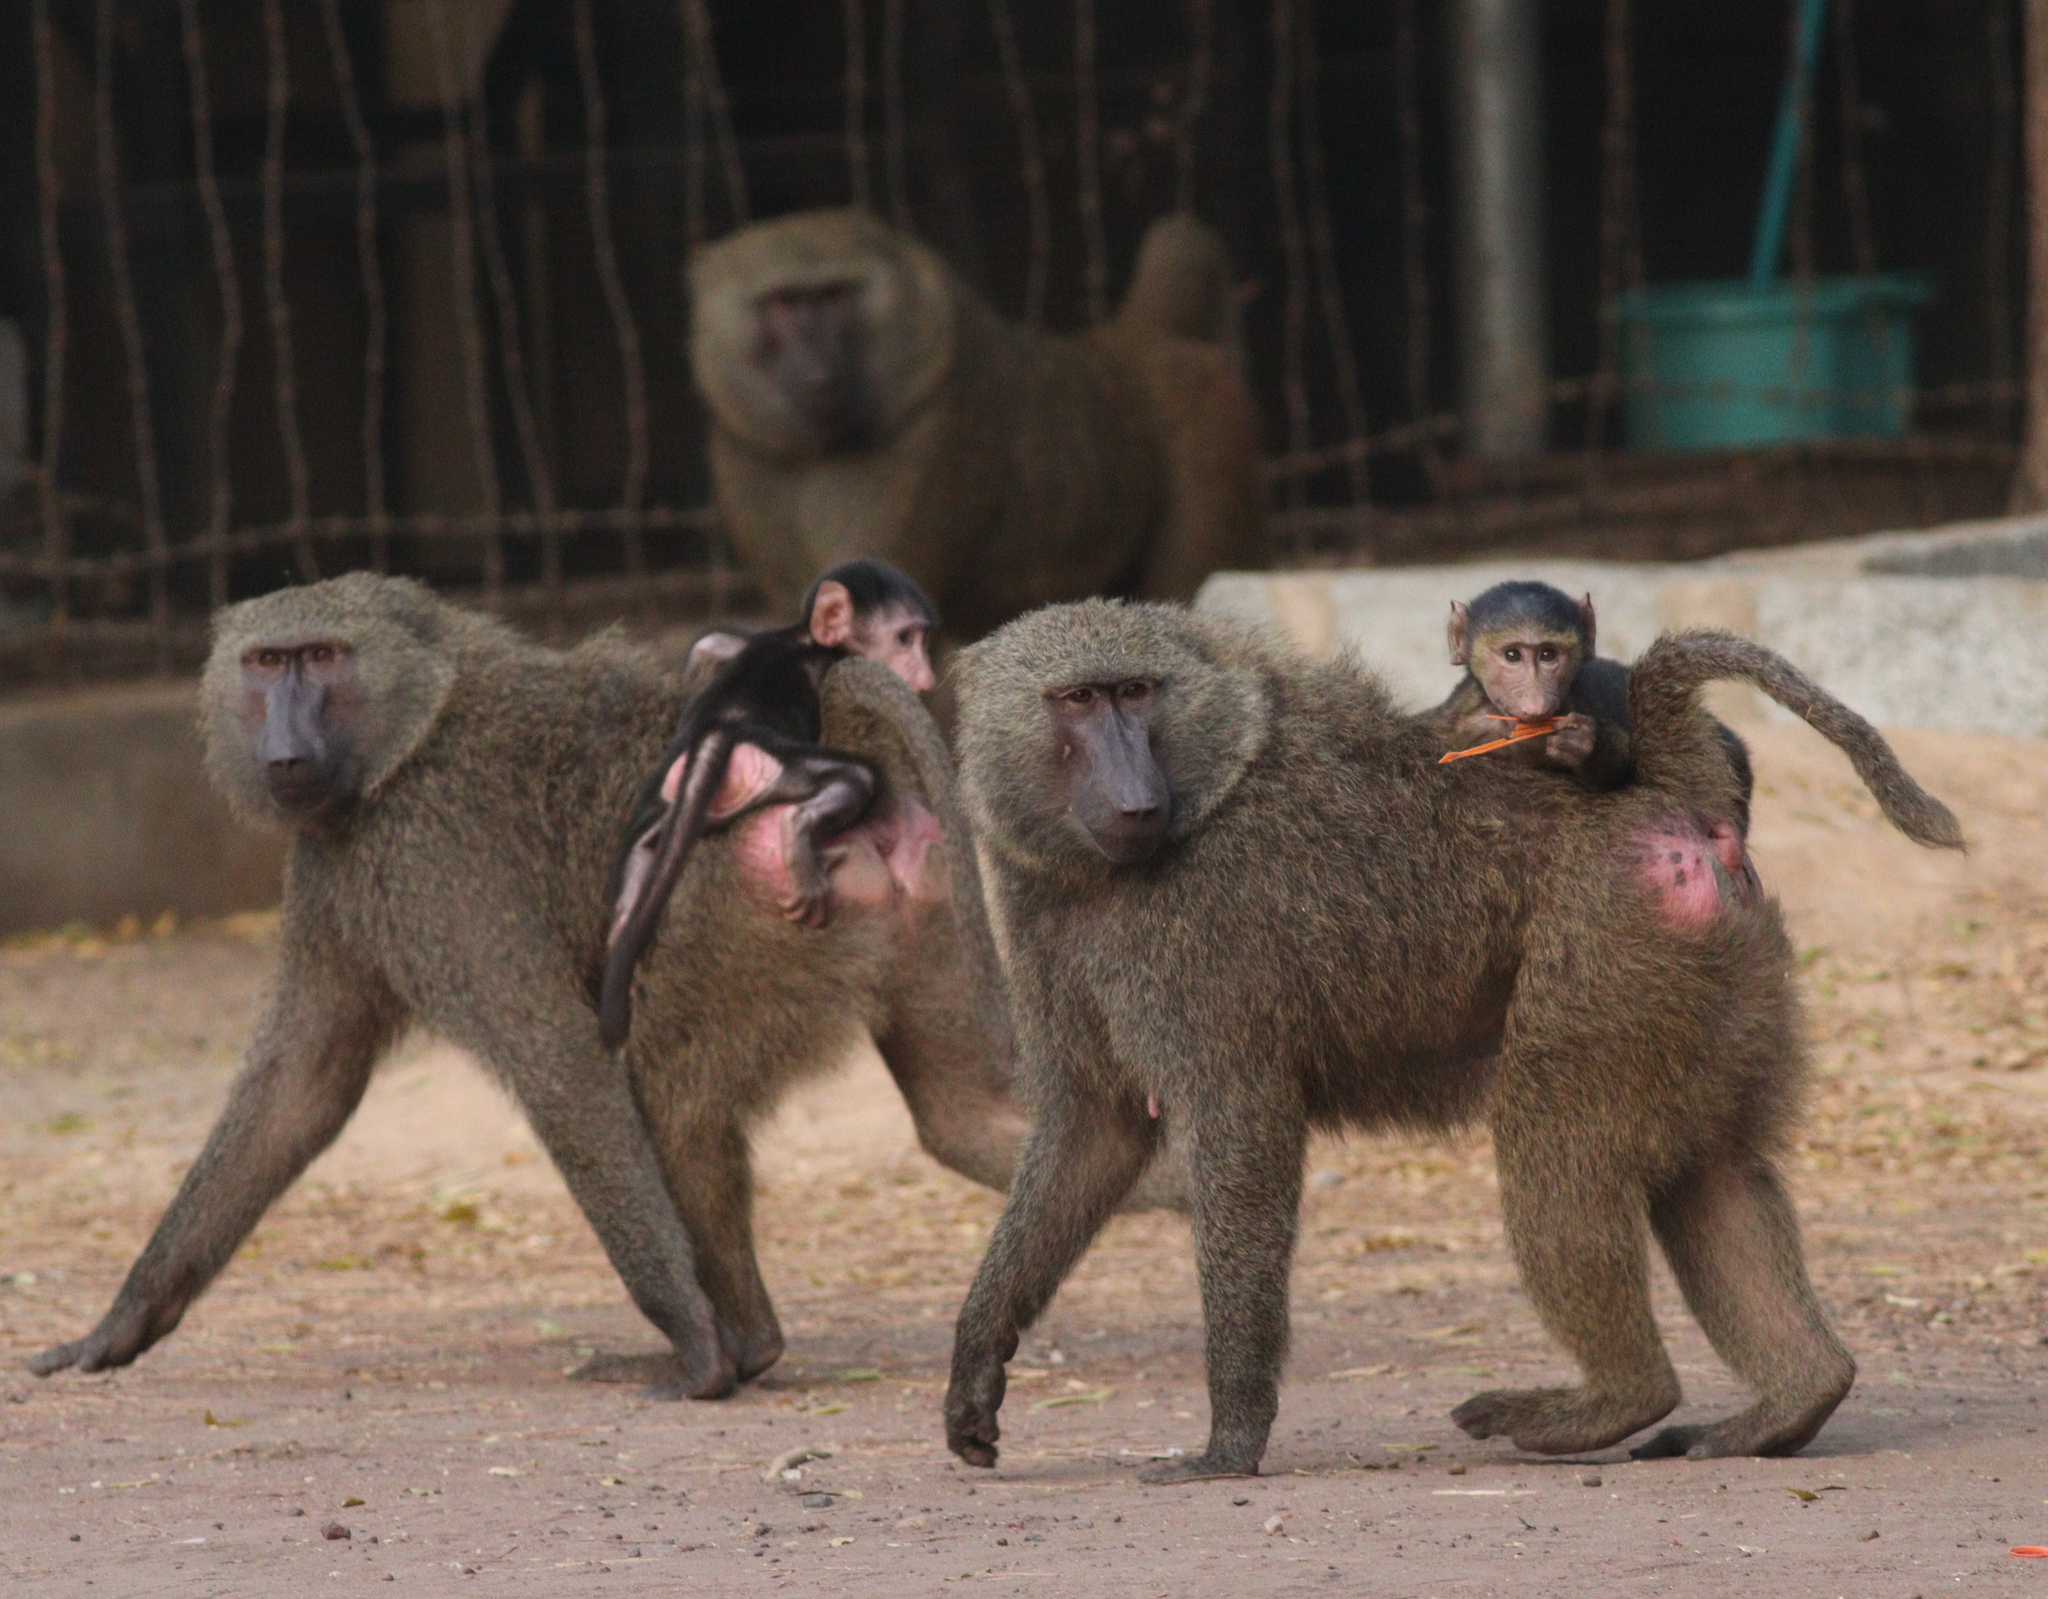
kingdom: Animalia
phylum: Chordata
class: Mammalia
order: Primates
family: Cercopithecidae
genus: Papio
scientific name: Papio anubis
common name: Olive baboon
